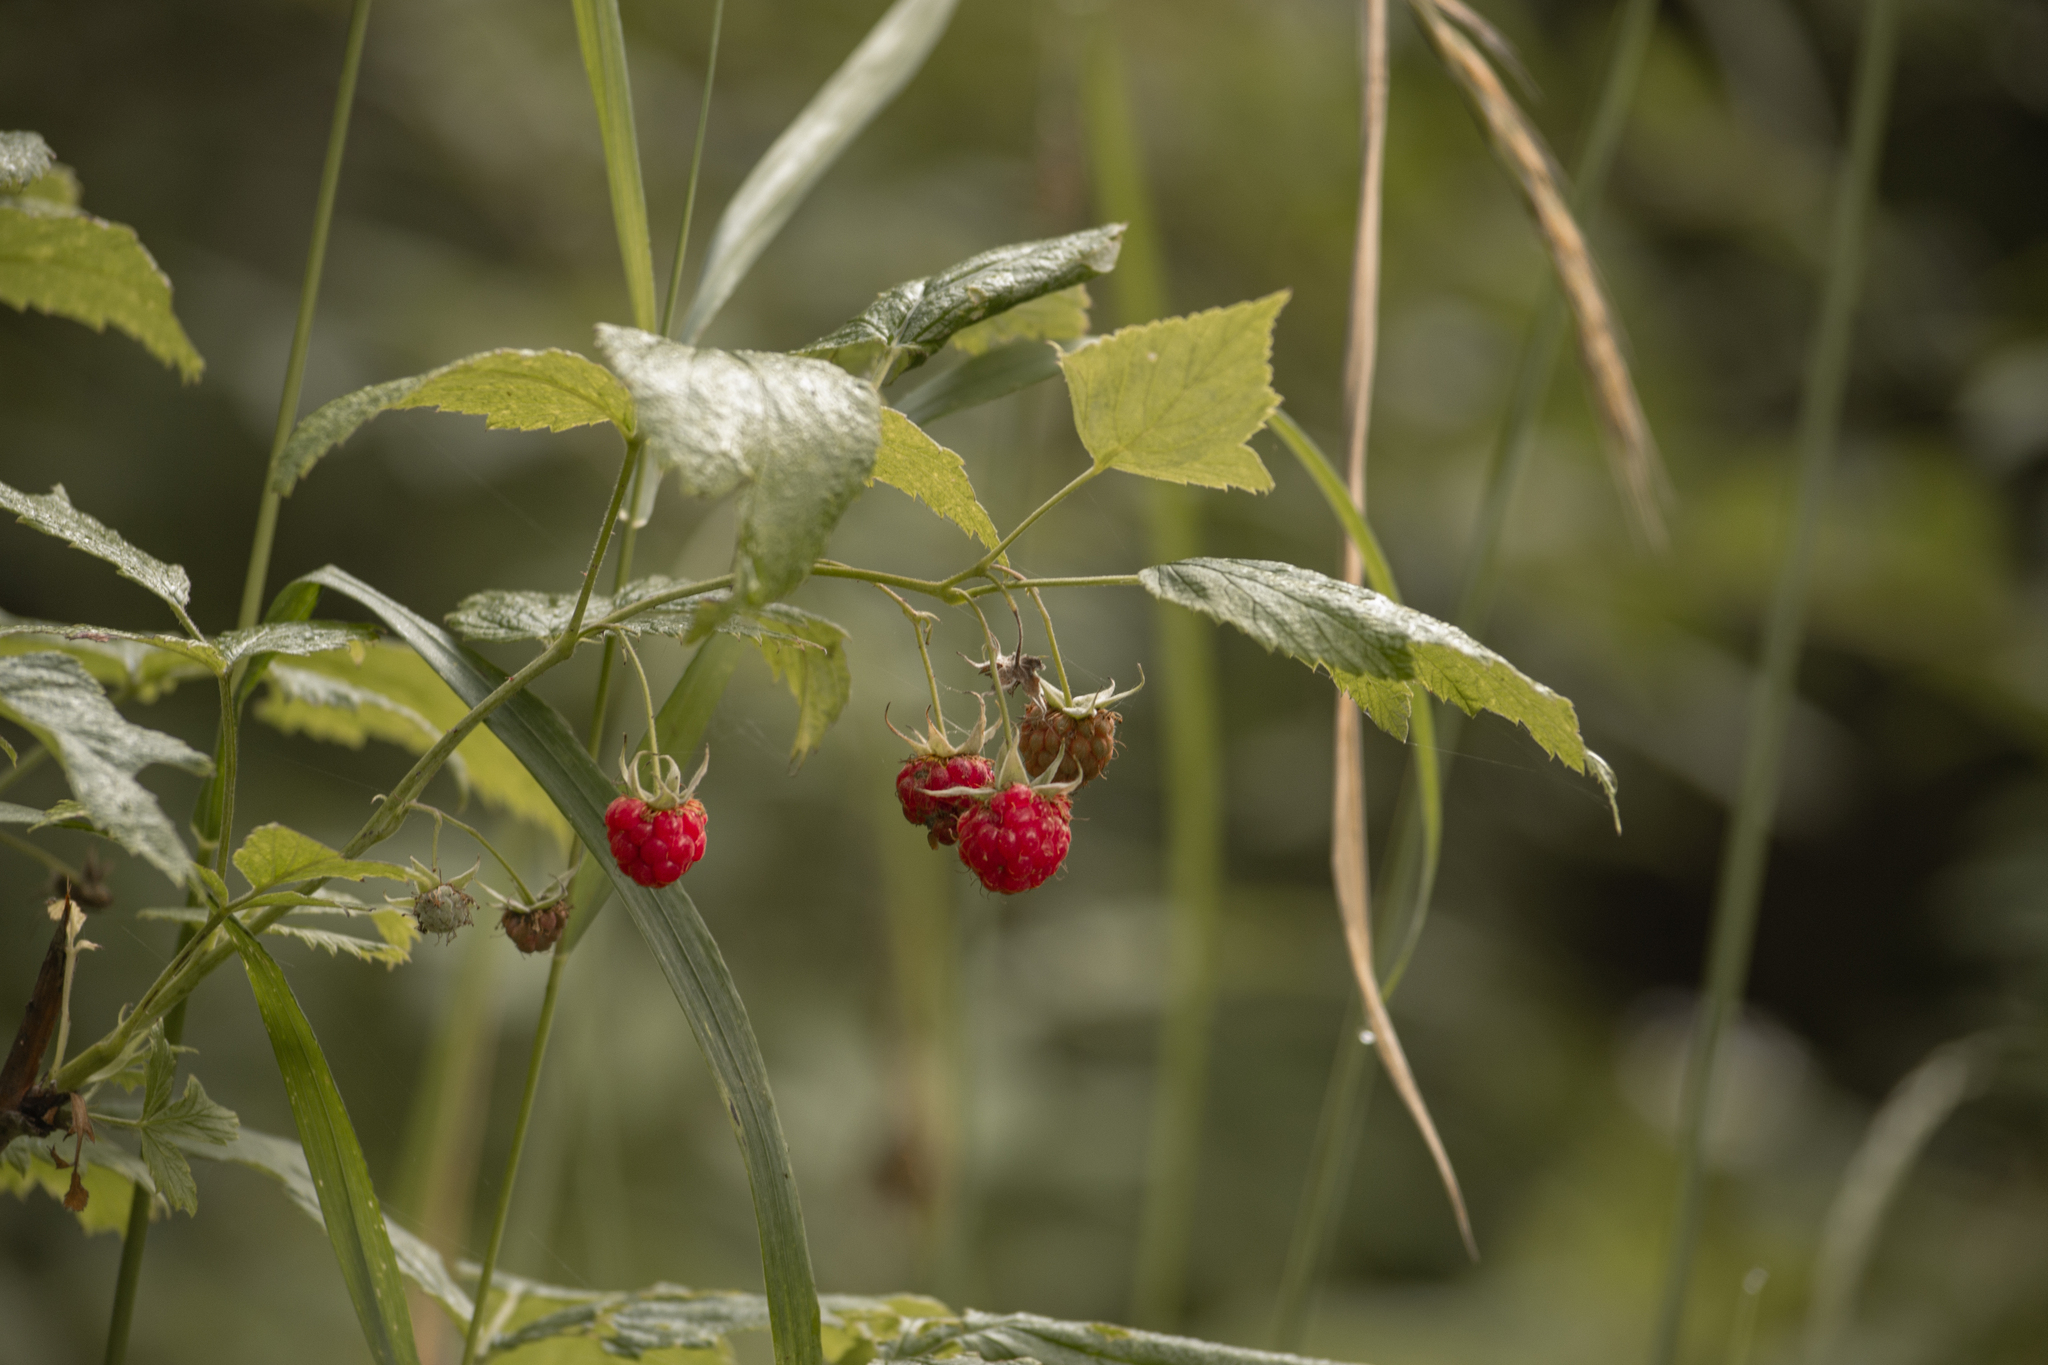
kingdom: Plantae
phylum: Tracheophyta
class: Magnoliopsida
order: Rosales
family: Rosaceae
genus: Rubus
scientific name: Rubus idaeus
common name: Raspberry
